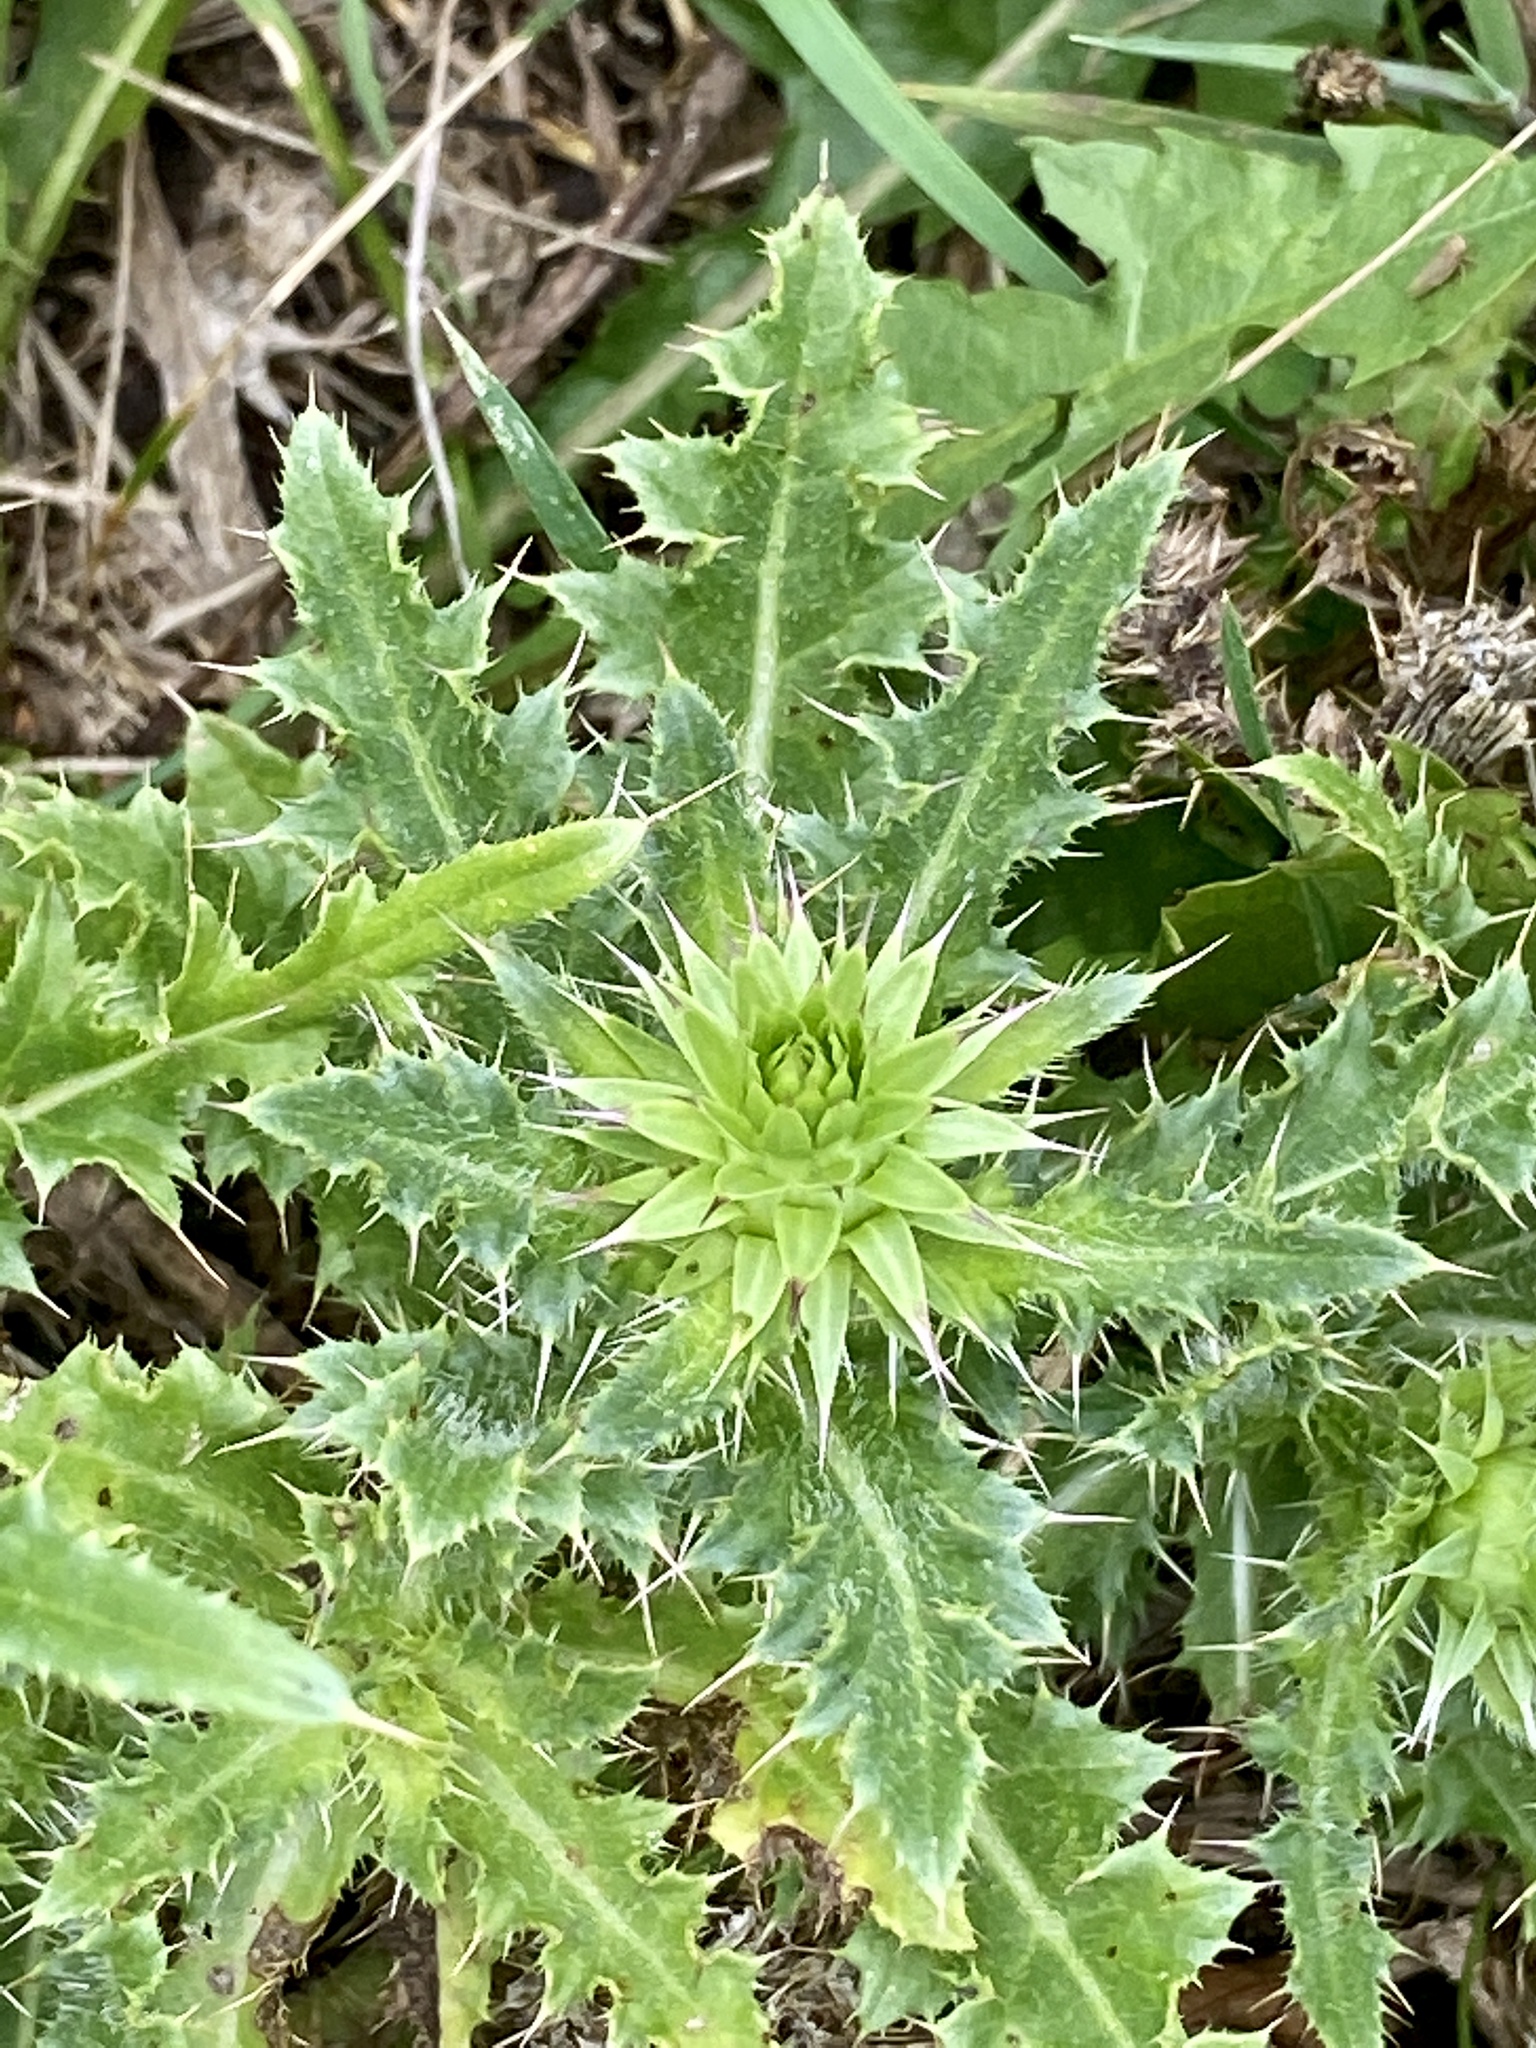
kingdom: Plantae
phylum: Tracheophyta
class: Magnoliopsida
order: Asterales
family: Asteraceae
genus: Carduus
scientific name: Carduus nutans
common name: Musk thistle
